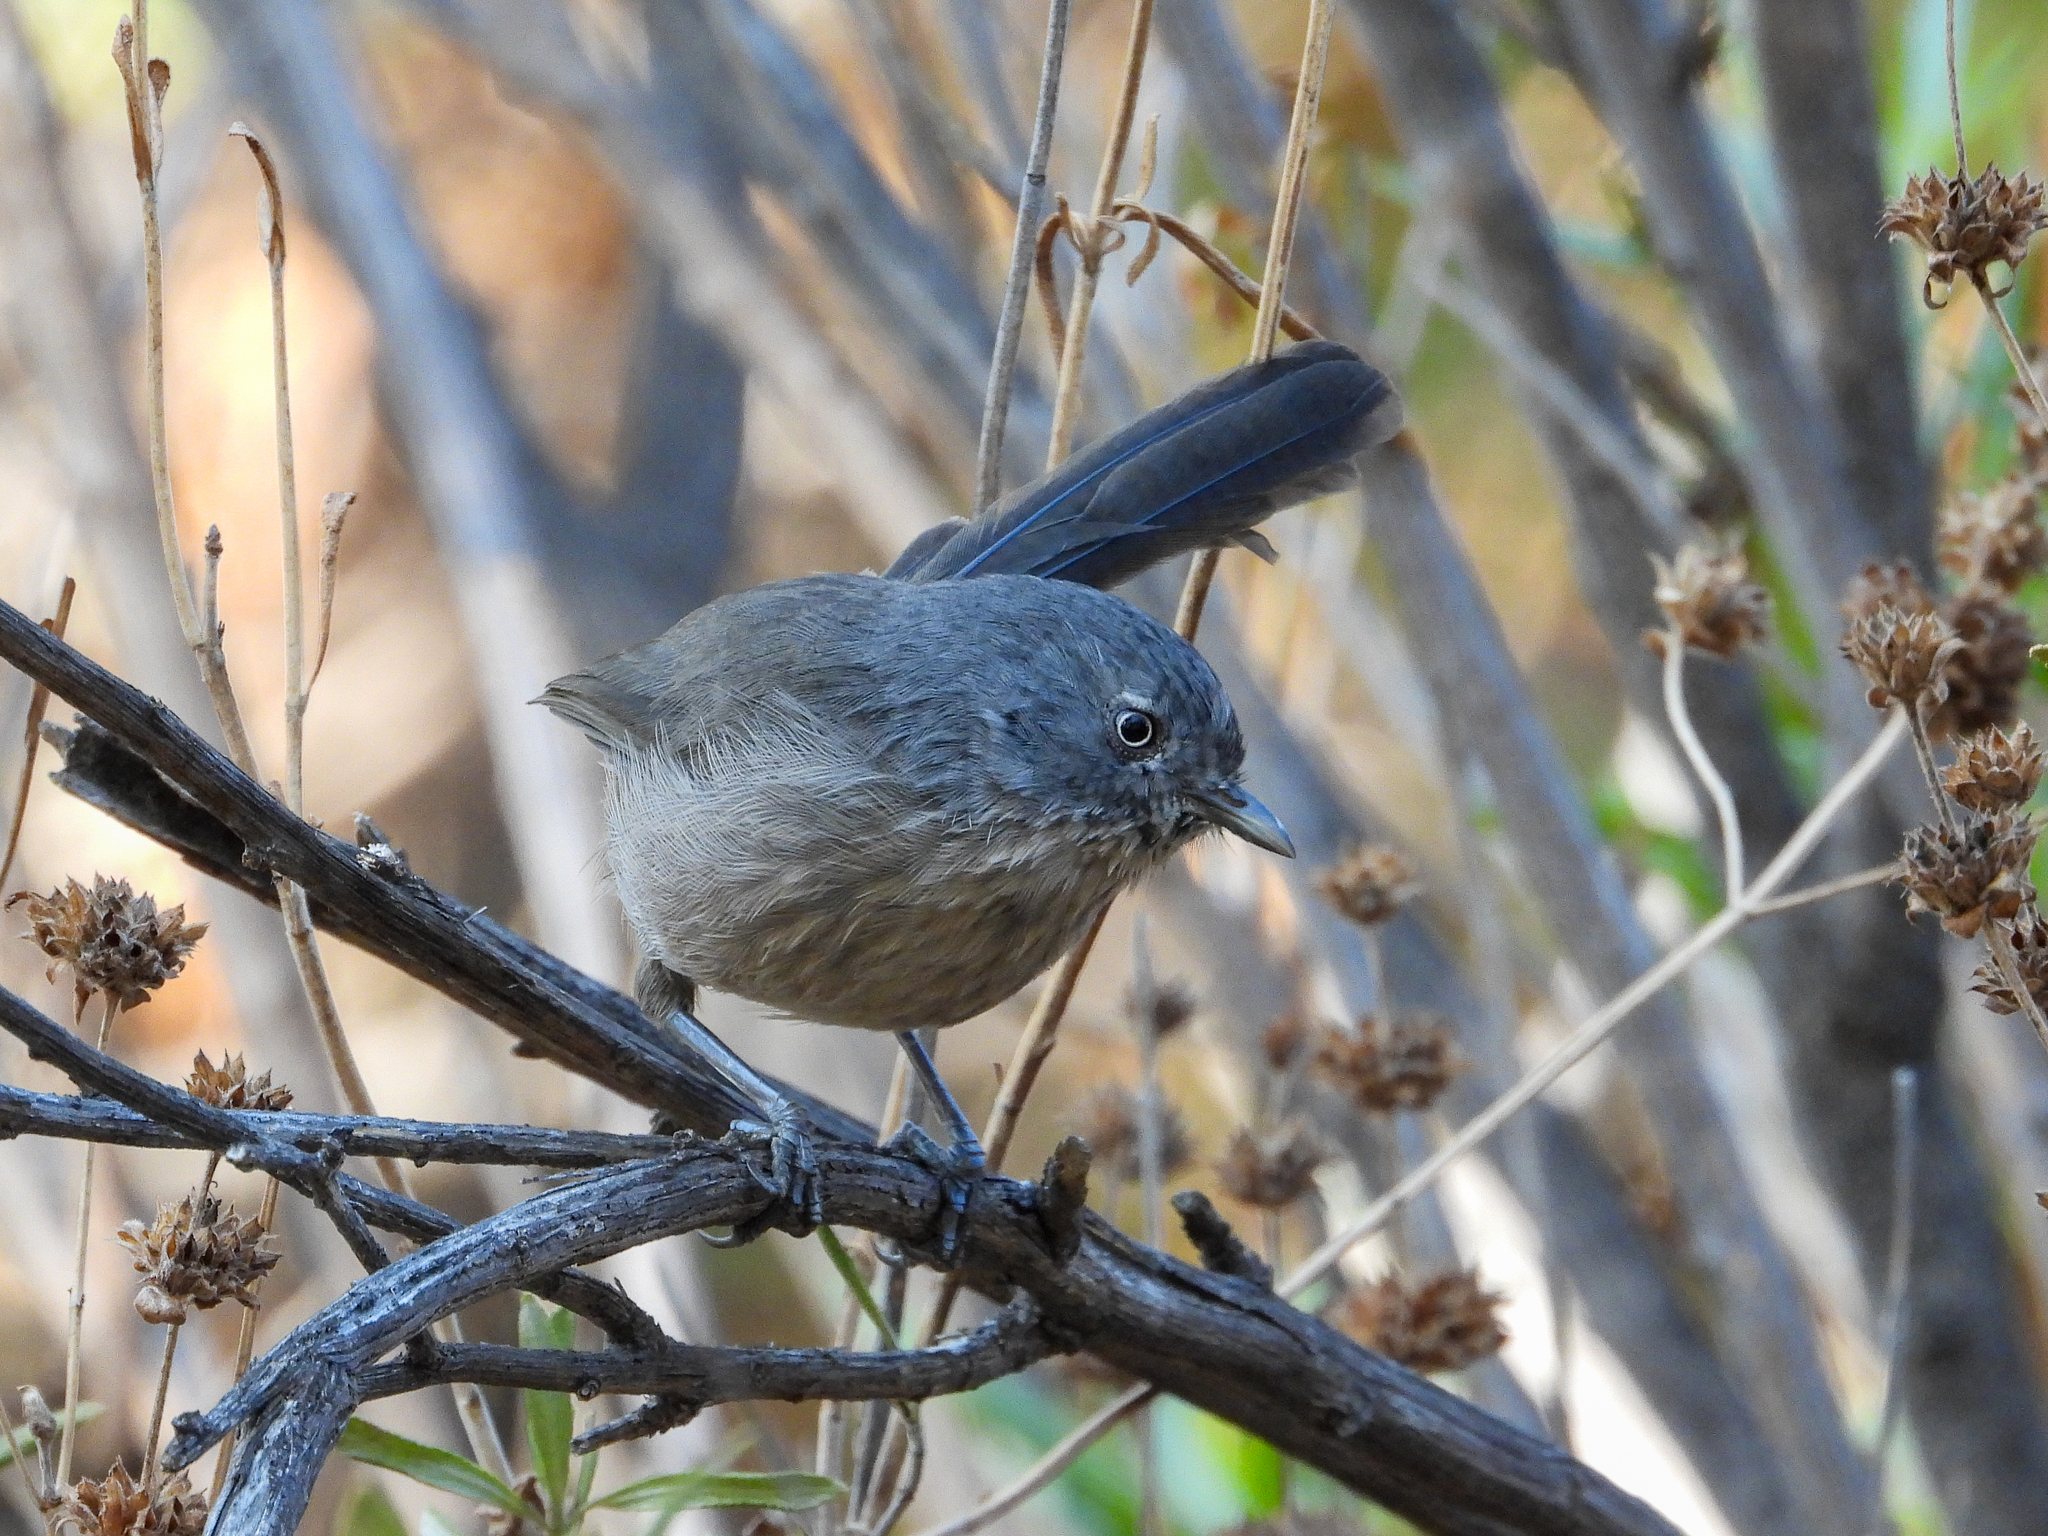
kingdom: Animalia
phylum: Chordata
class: Aves
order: Passeriformes
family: Sylviidae
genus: Chamaea
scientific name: Chamaea fasciata
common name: Wrentit
